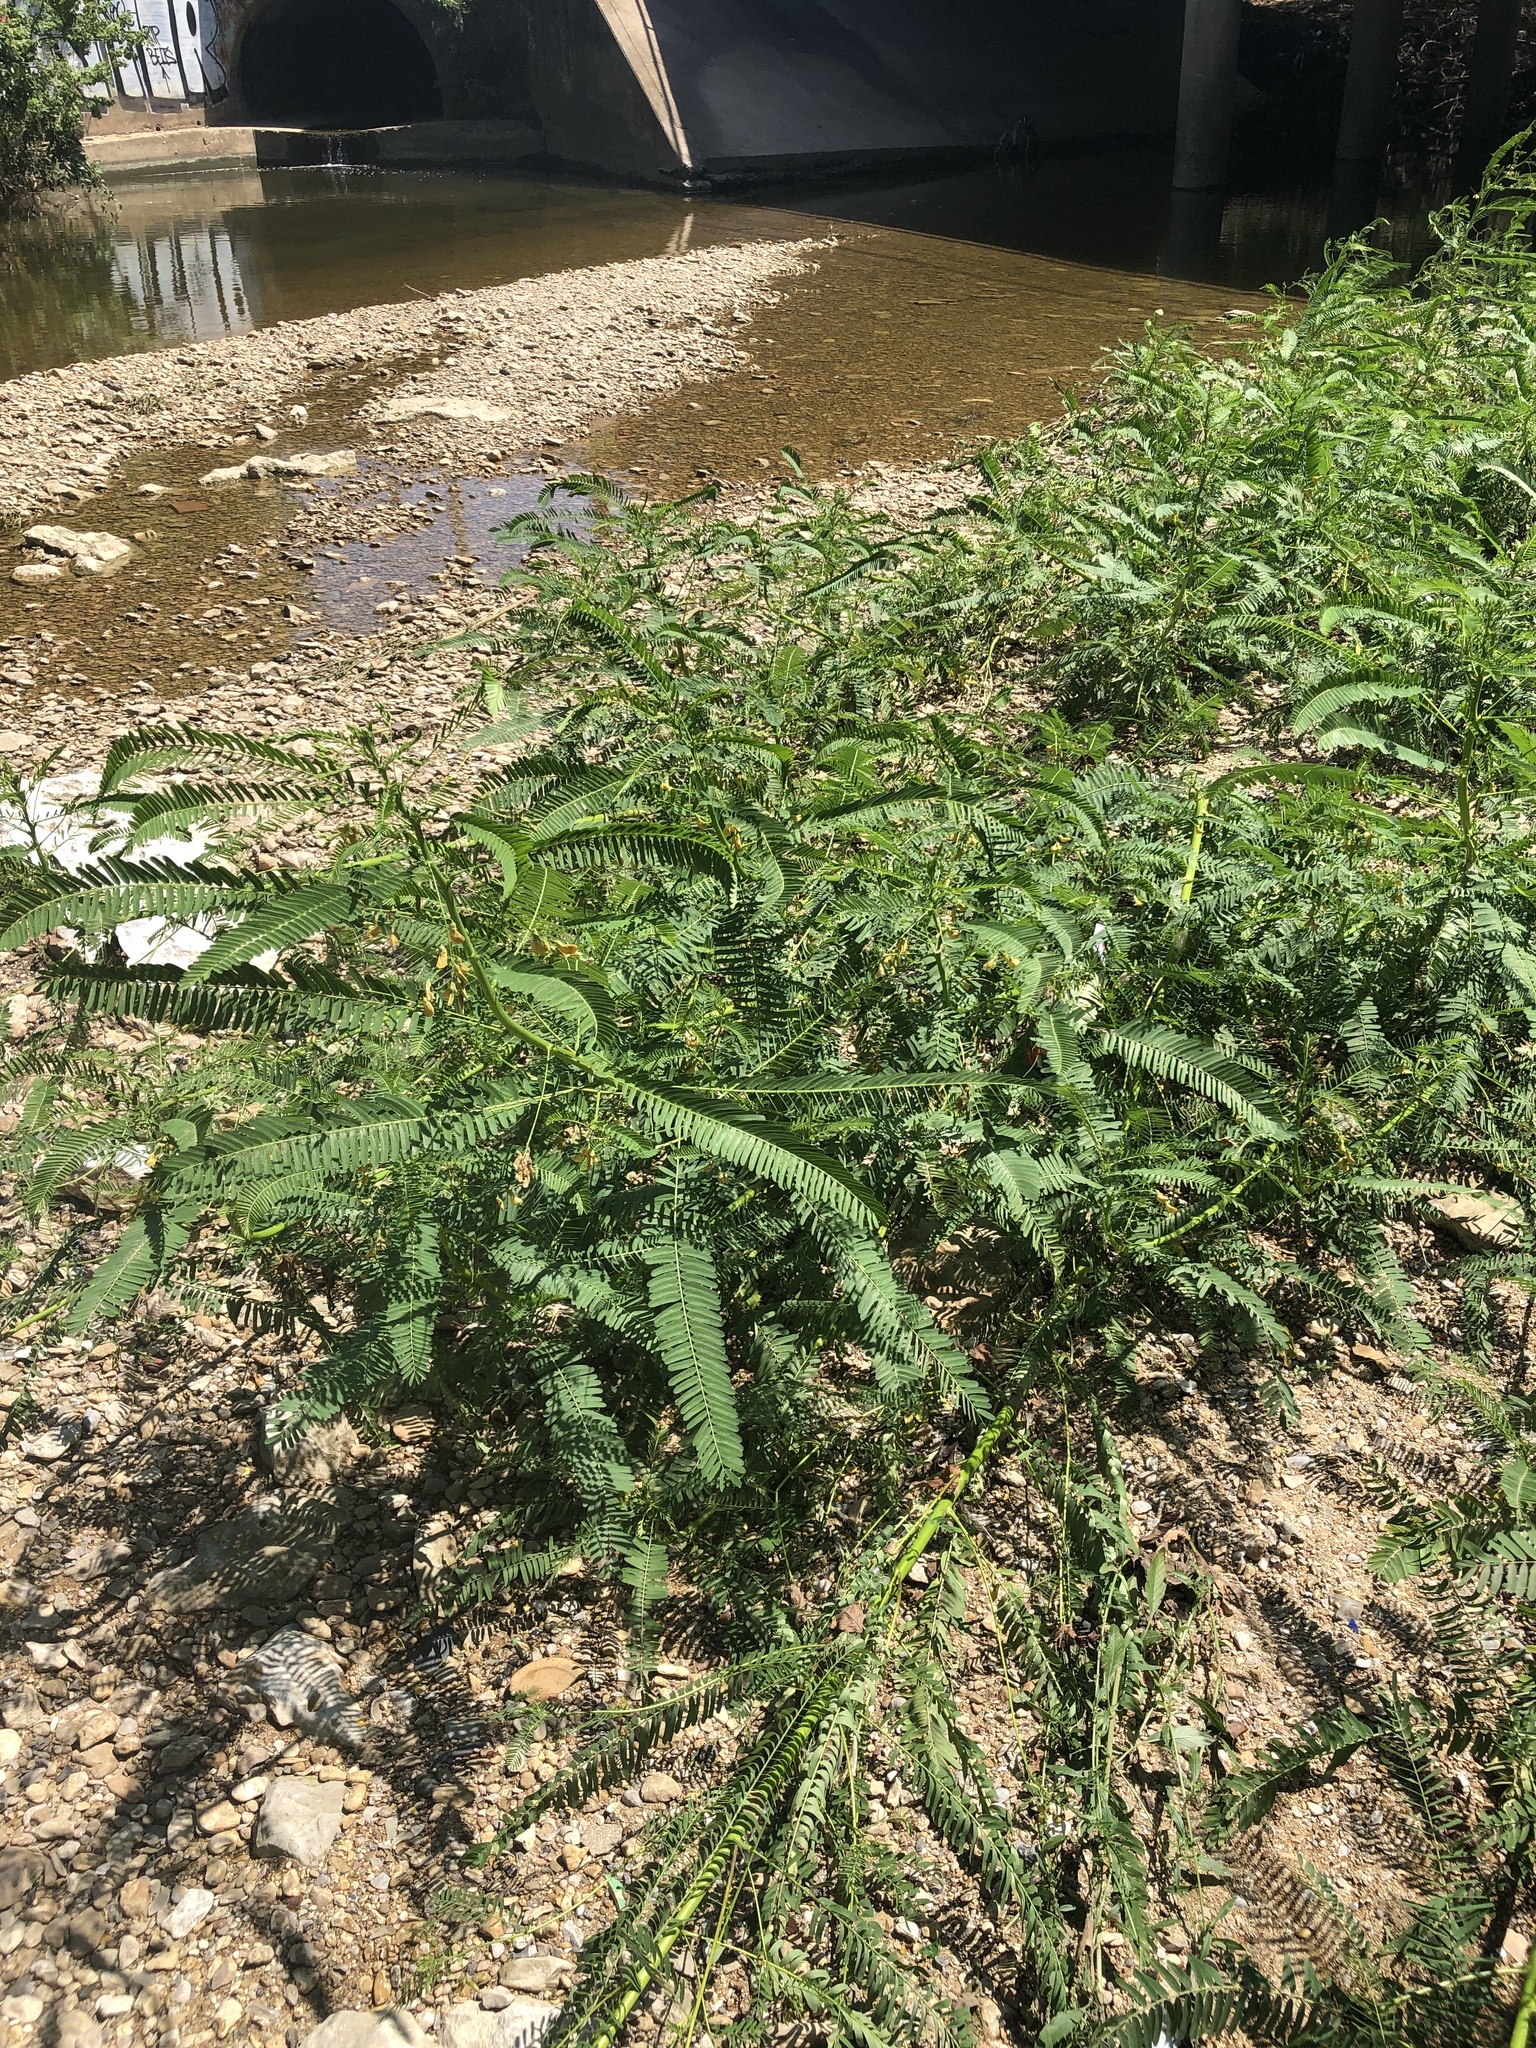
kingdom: Plantae
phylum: Tracheophyta
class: Magnoliopsida
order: Fabales
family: Fabaceae
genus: Sesbania
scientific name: Sesbania herbacea
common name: Bigpod sesbania
